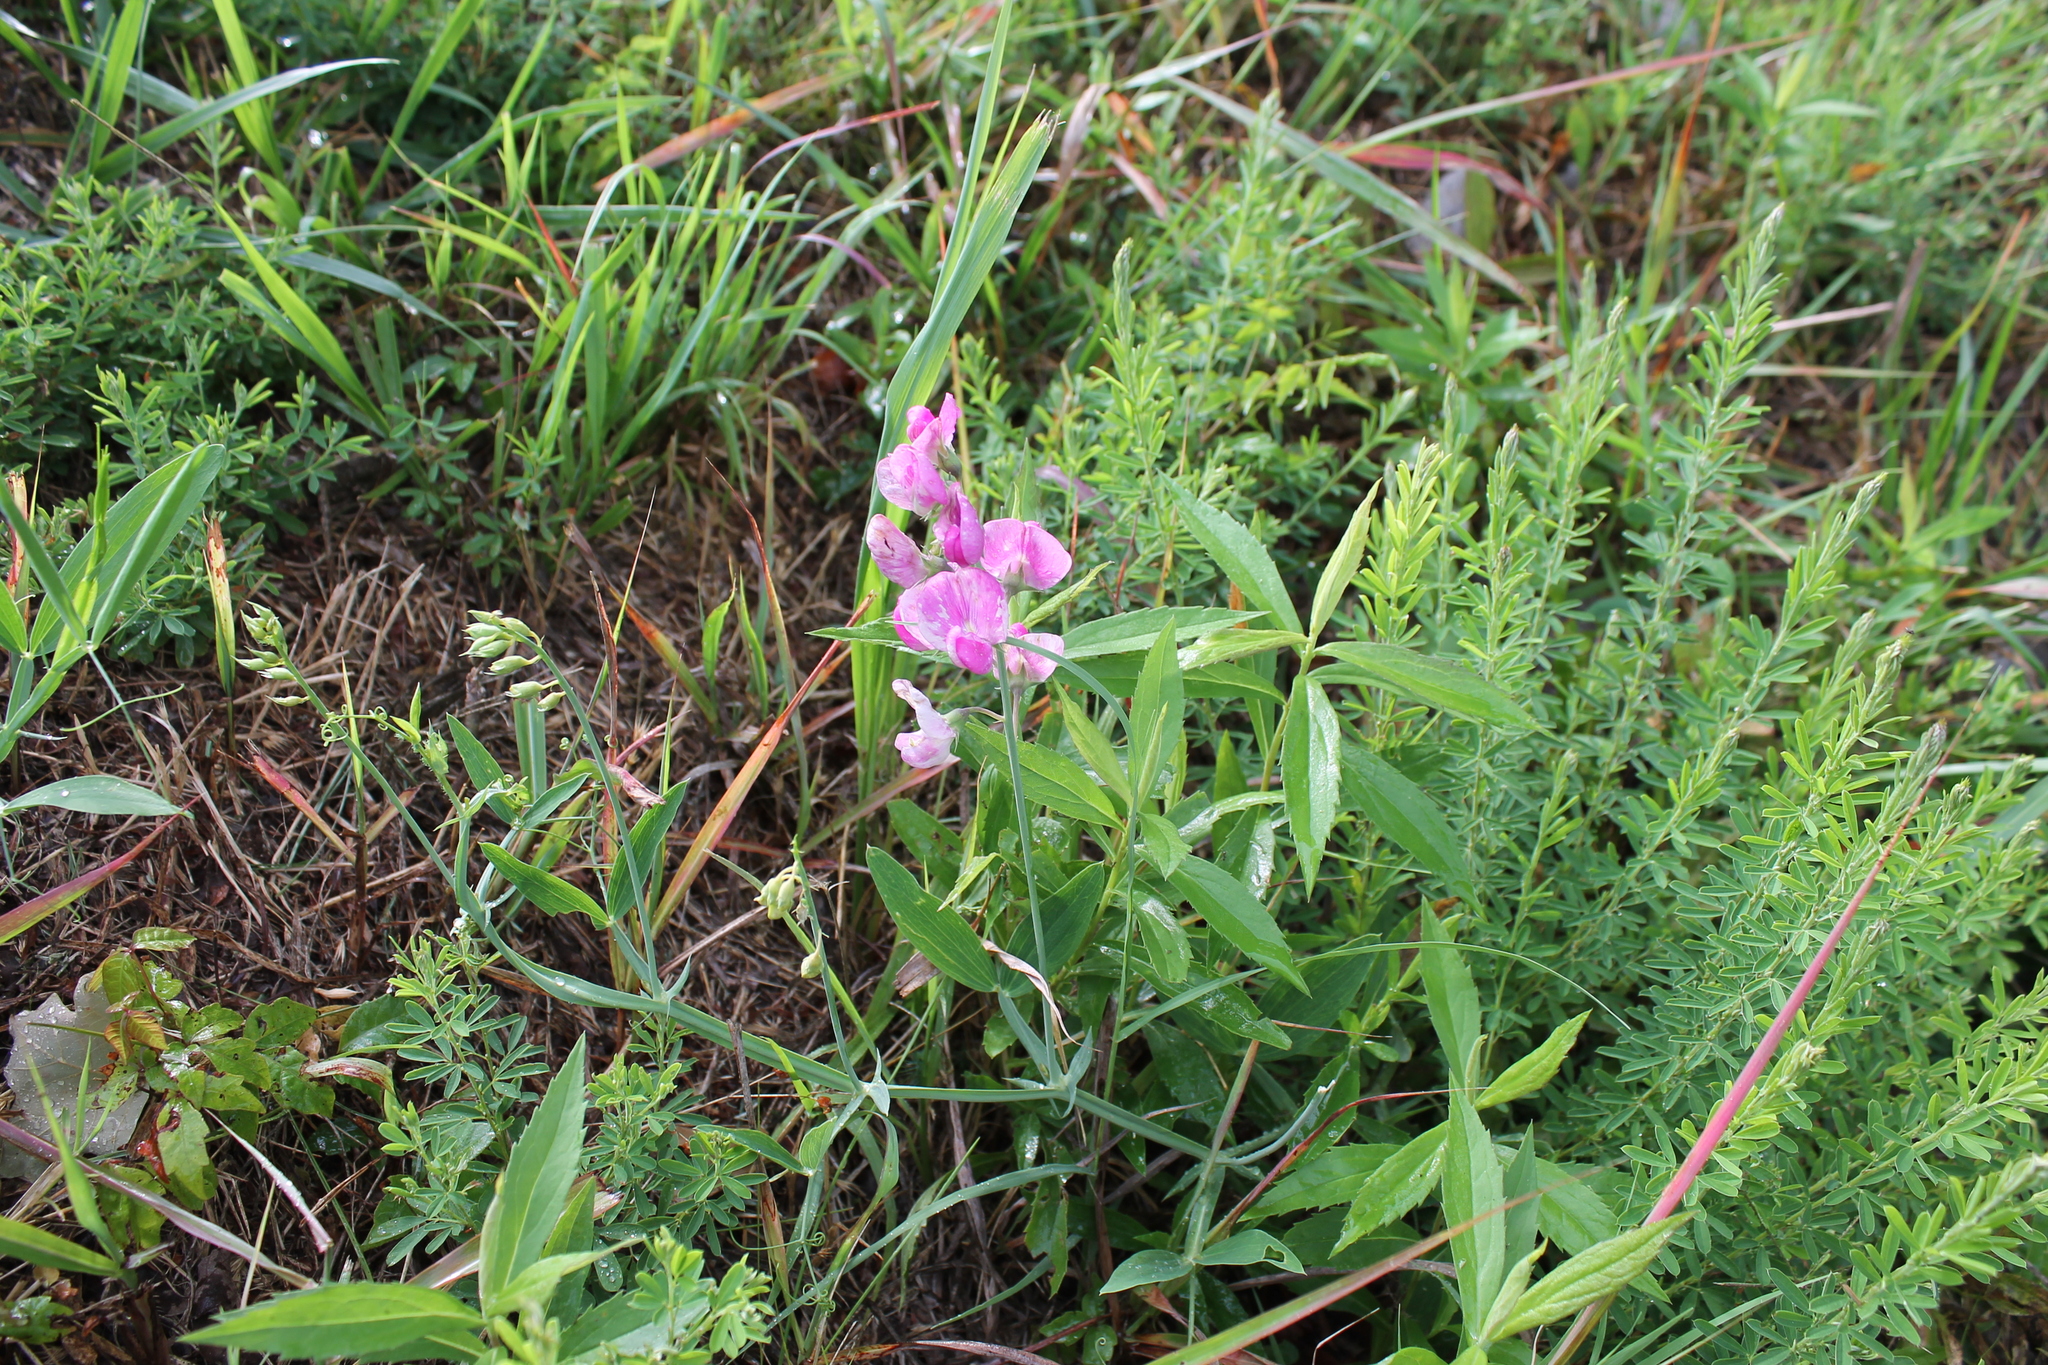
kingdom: Plantae
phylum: Tracheophyta
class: Magnoliopsida
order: Fabales
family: Fabaceae
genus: Lathyrus
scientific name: Lathyrus latifolius
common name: Perennial pea
